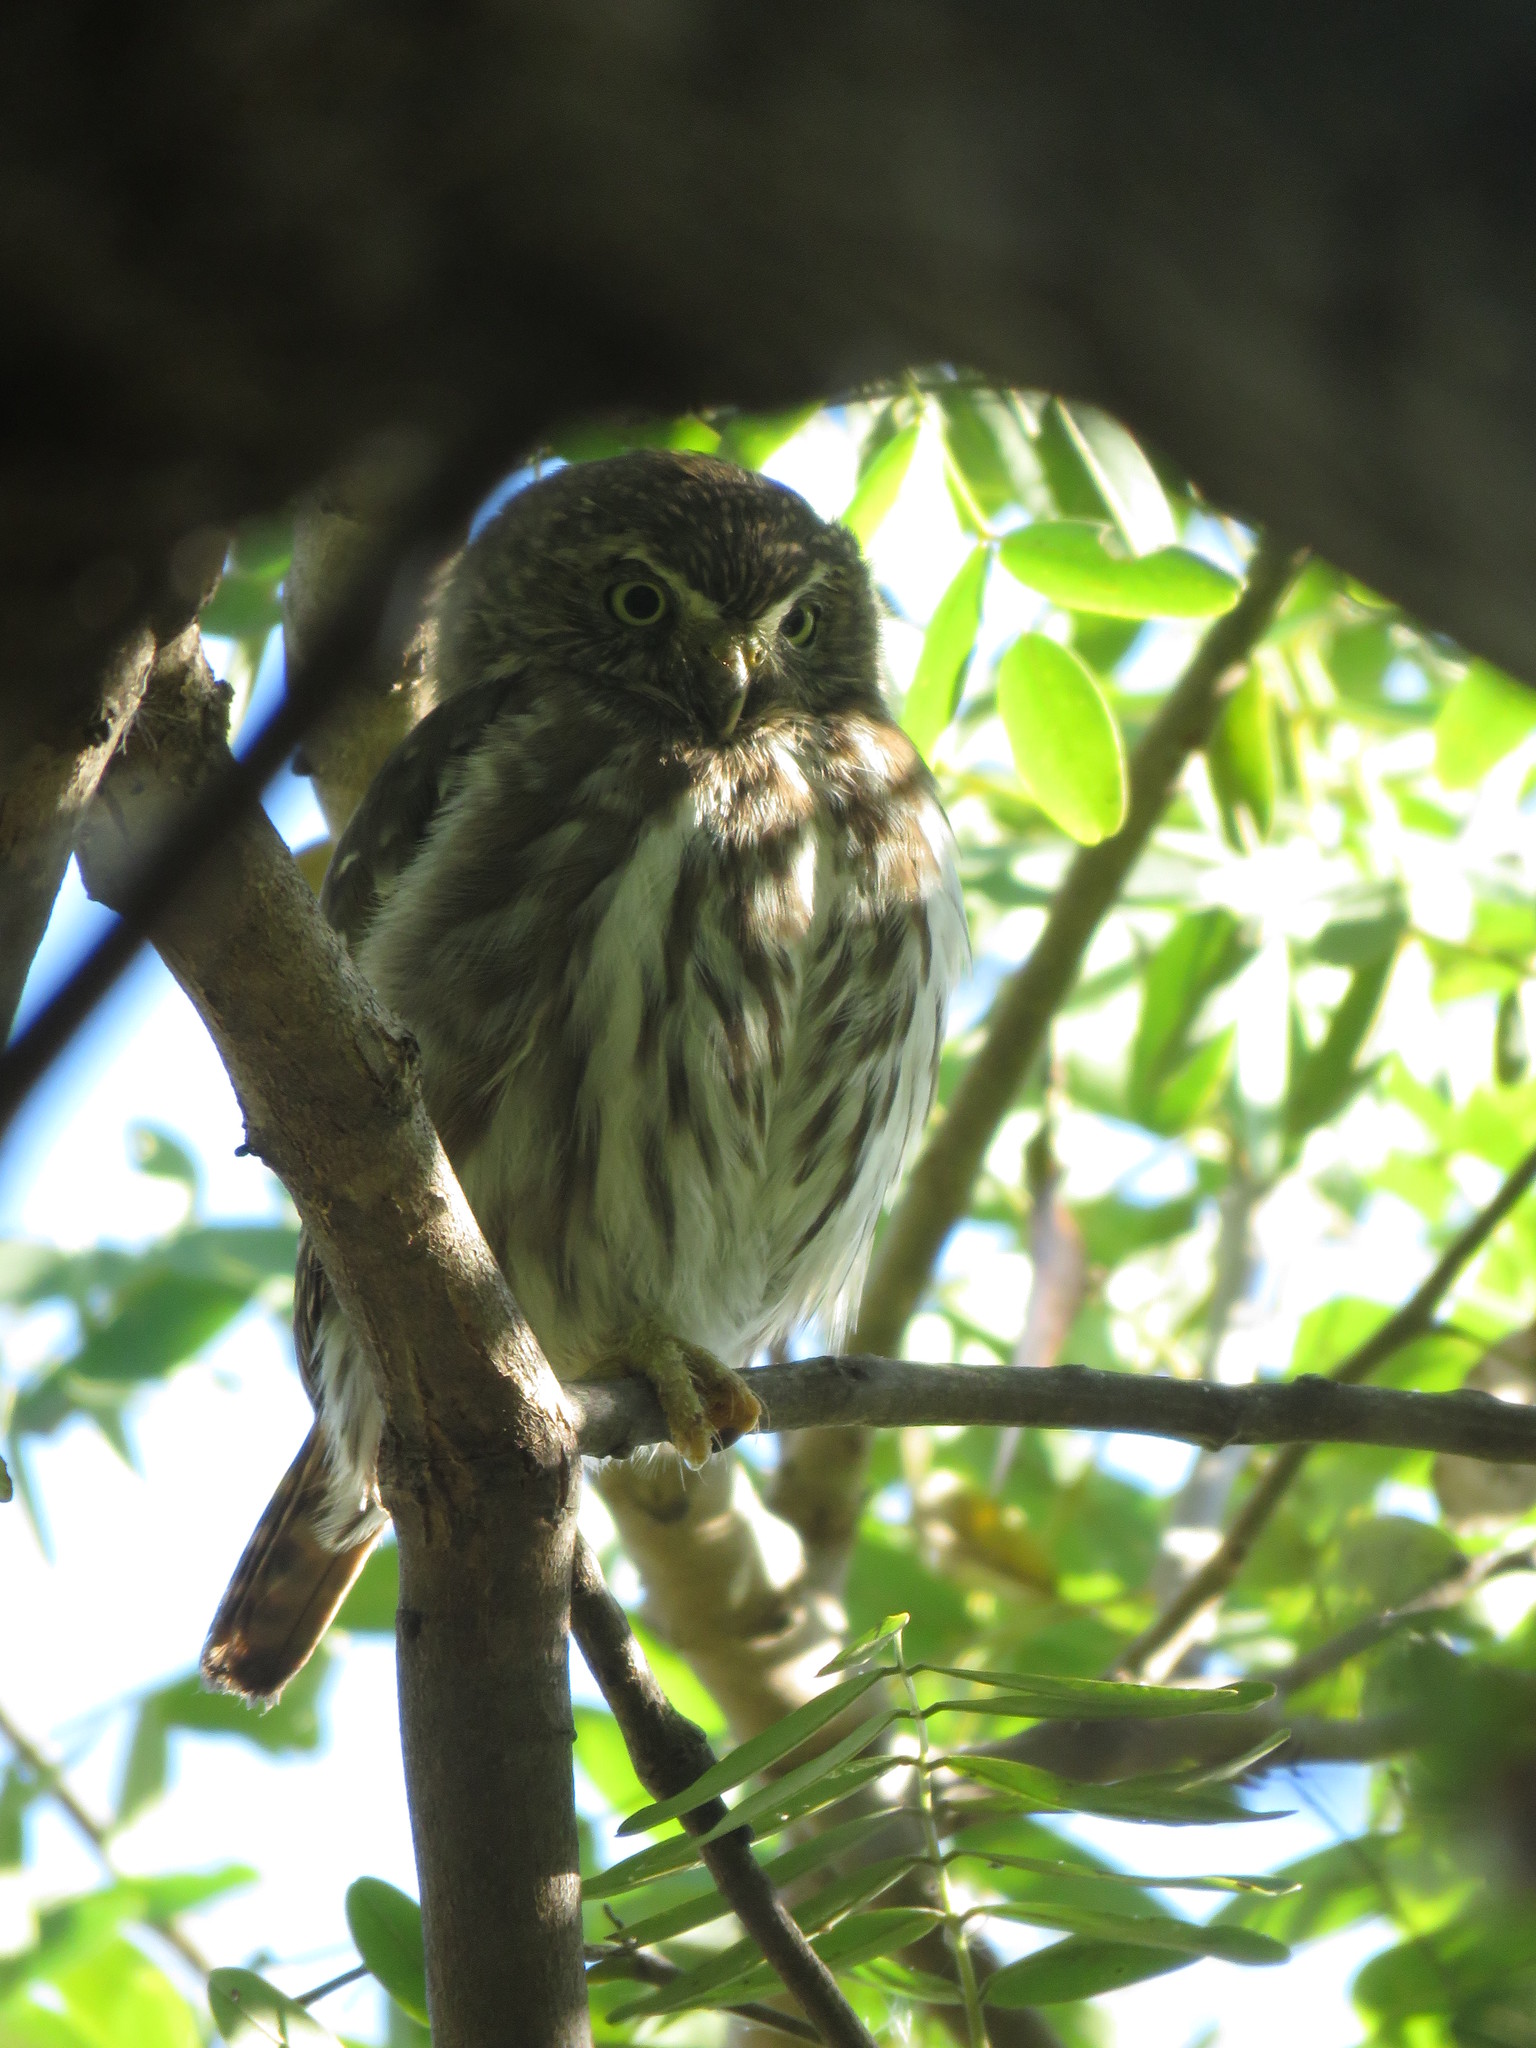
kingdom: Animalia
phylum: Chordata
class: Aves
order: Strigiformes
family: Strigidae
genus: Glaucidium
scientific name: Glaucidium brasilianum
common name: Ferruginous pygmy-owl
